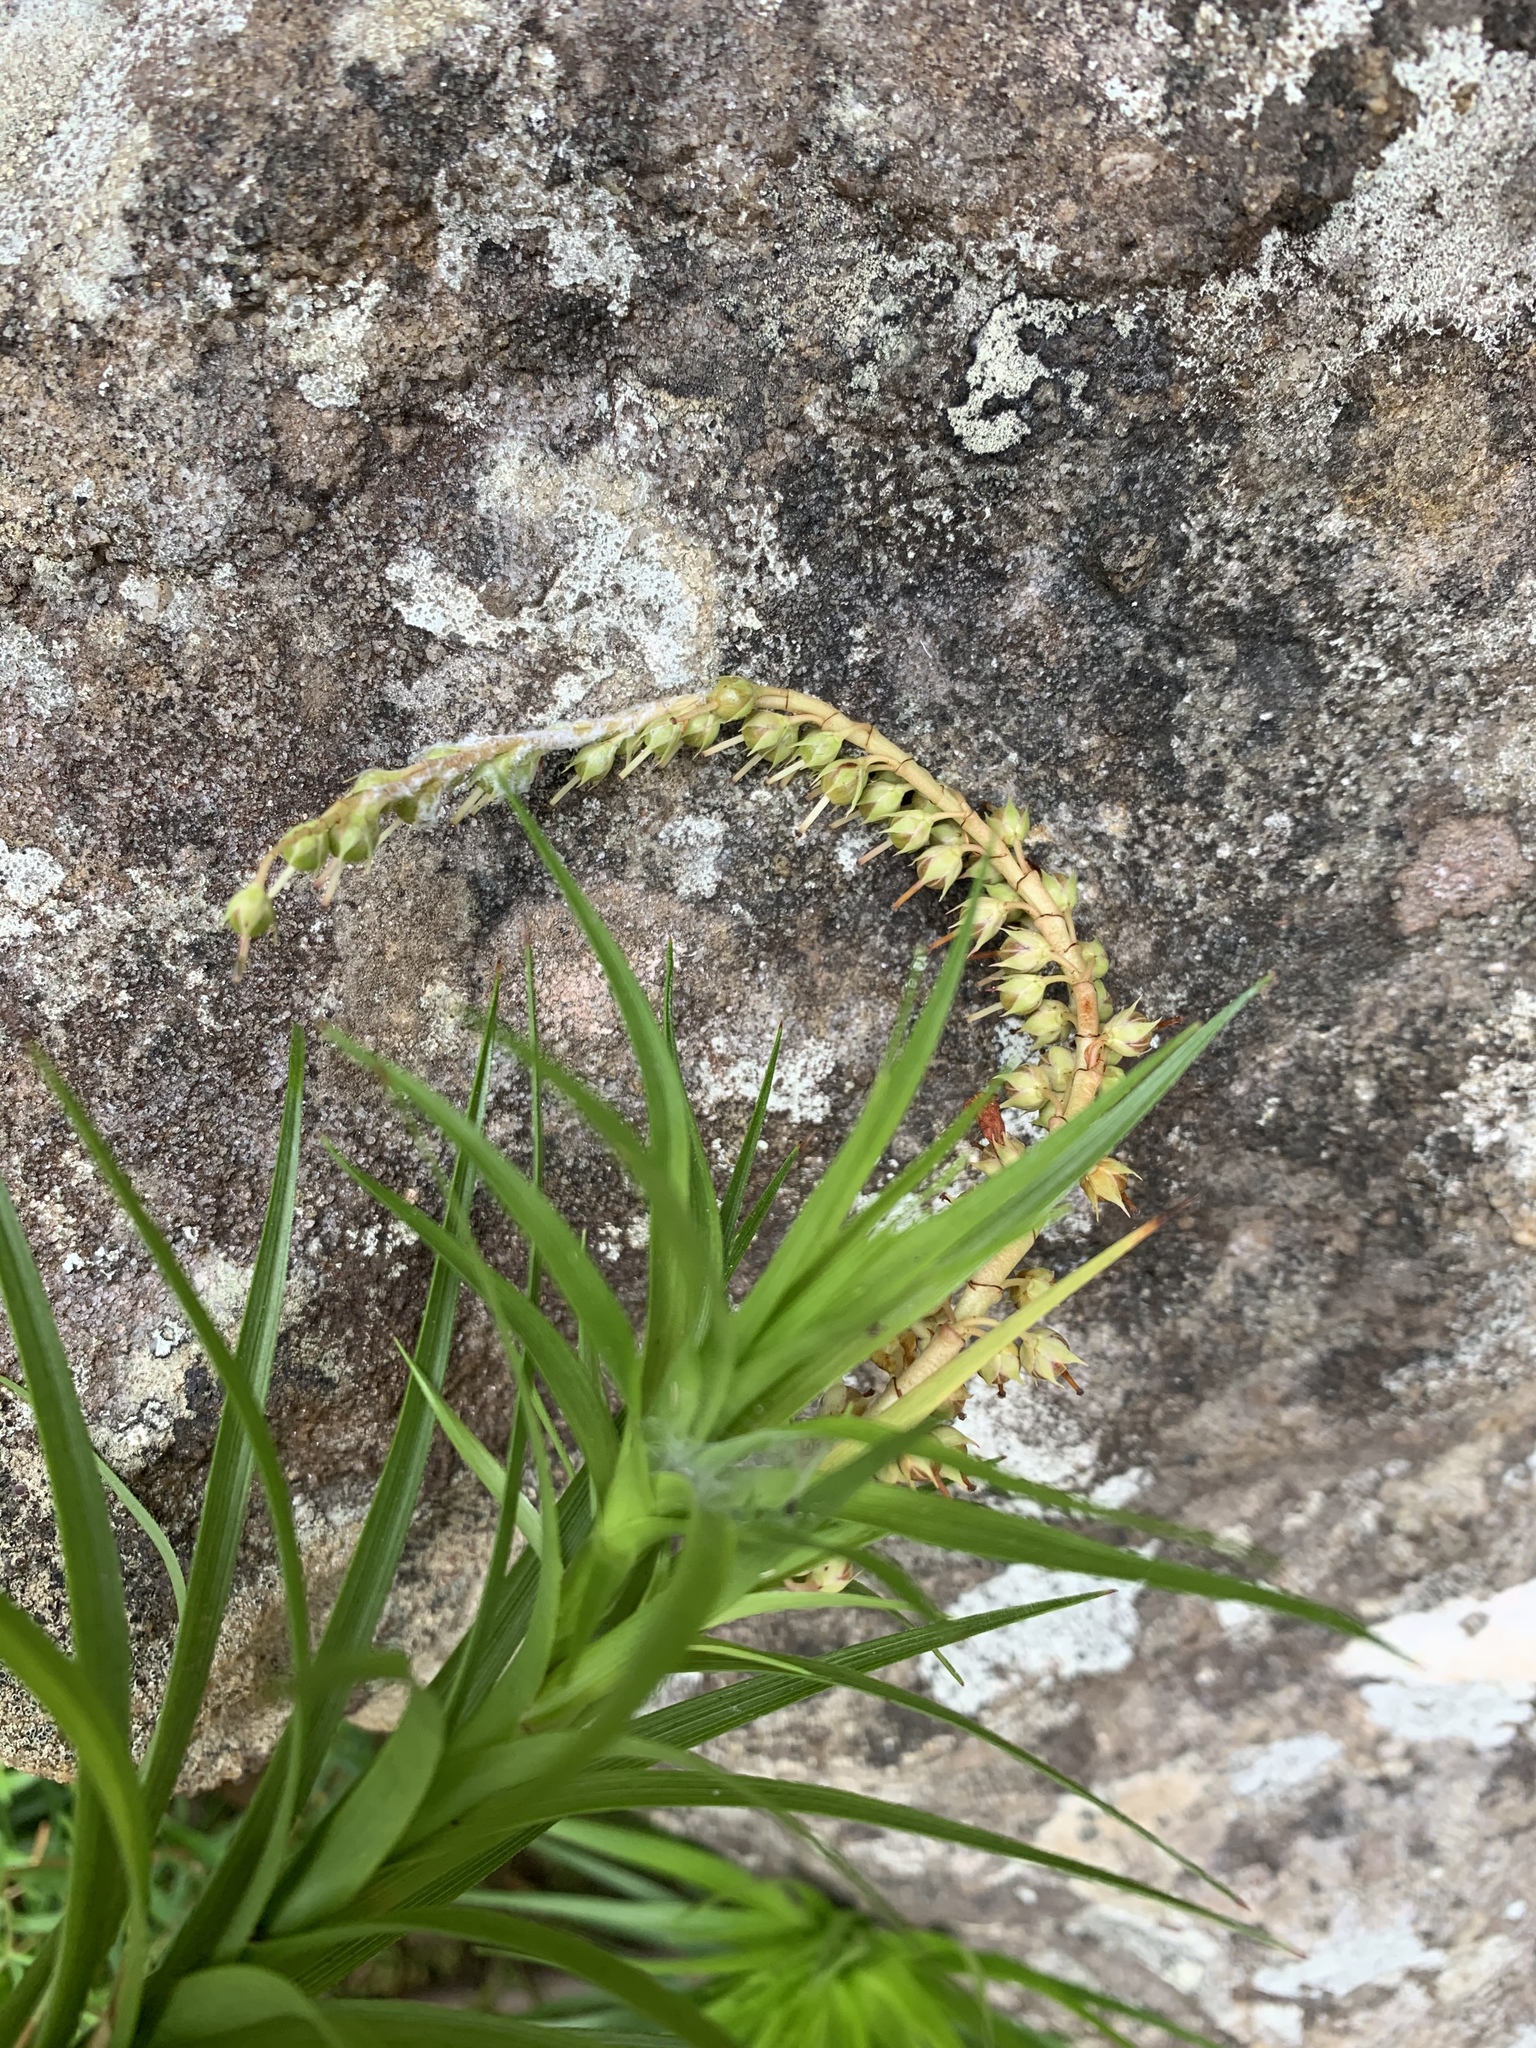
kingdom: Plantae
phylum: Tracheophyta
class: Magnoliopsida
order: Ericales
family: Ericaceae
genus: Dracophyllum
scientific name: Dracophyllum secundum
